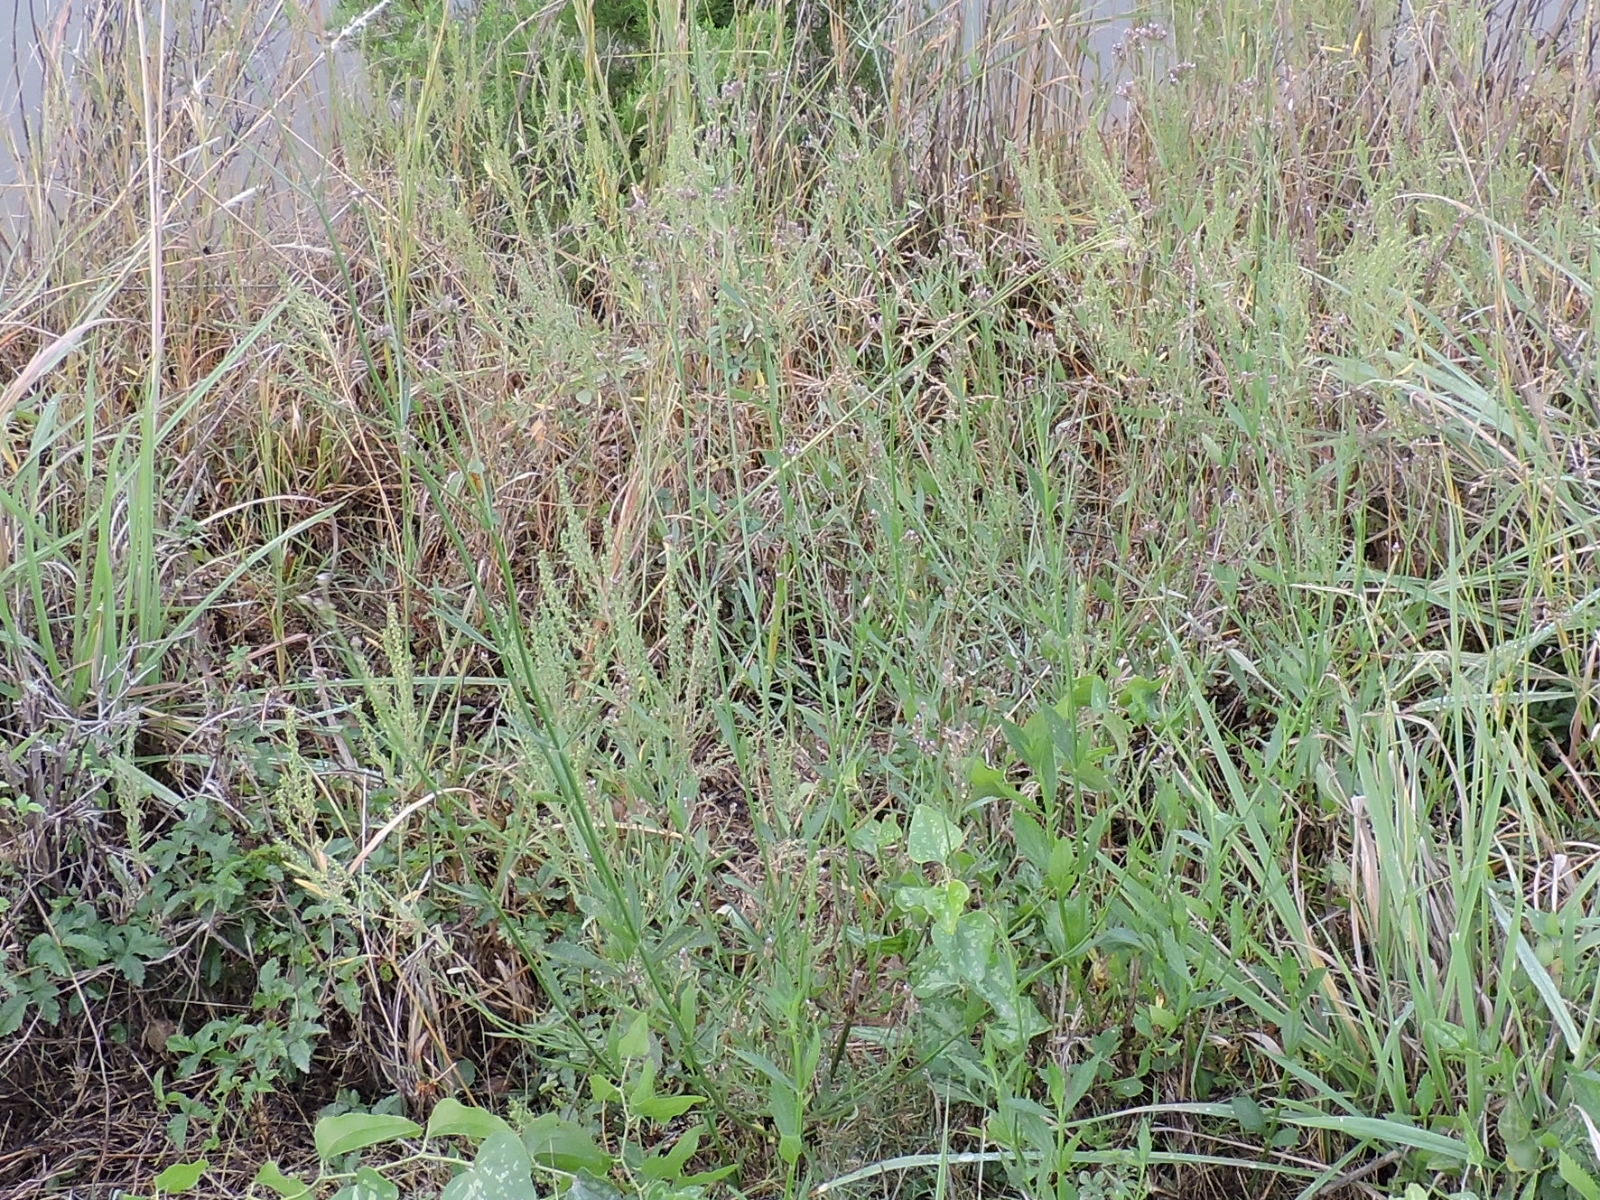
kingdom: Plantae
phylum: Tracheophyta
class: Magnoliopsida
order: Lamiales
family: Verbenaceae
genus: Verbena
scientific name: Verbena brasiliensis
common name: Brazilian vervain
